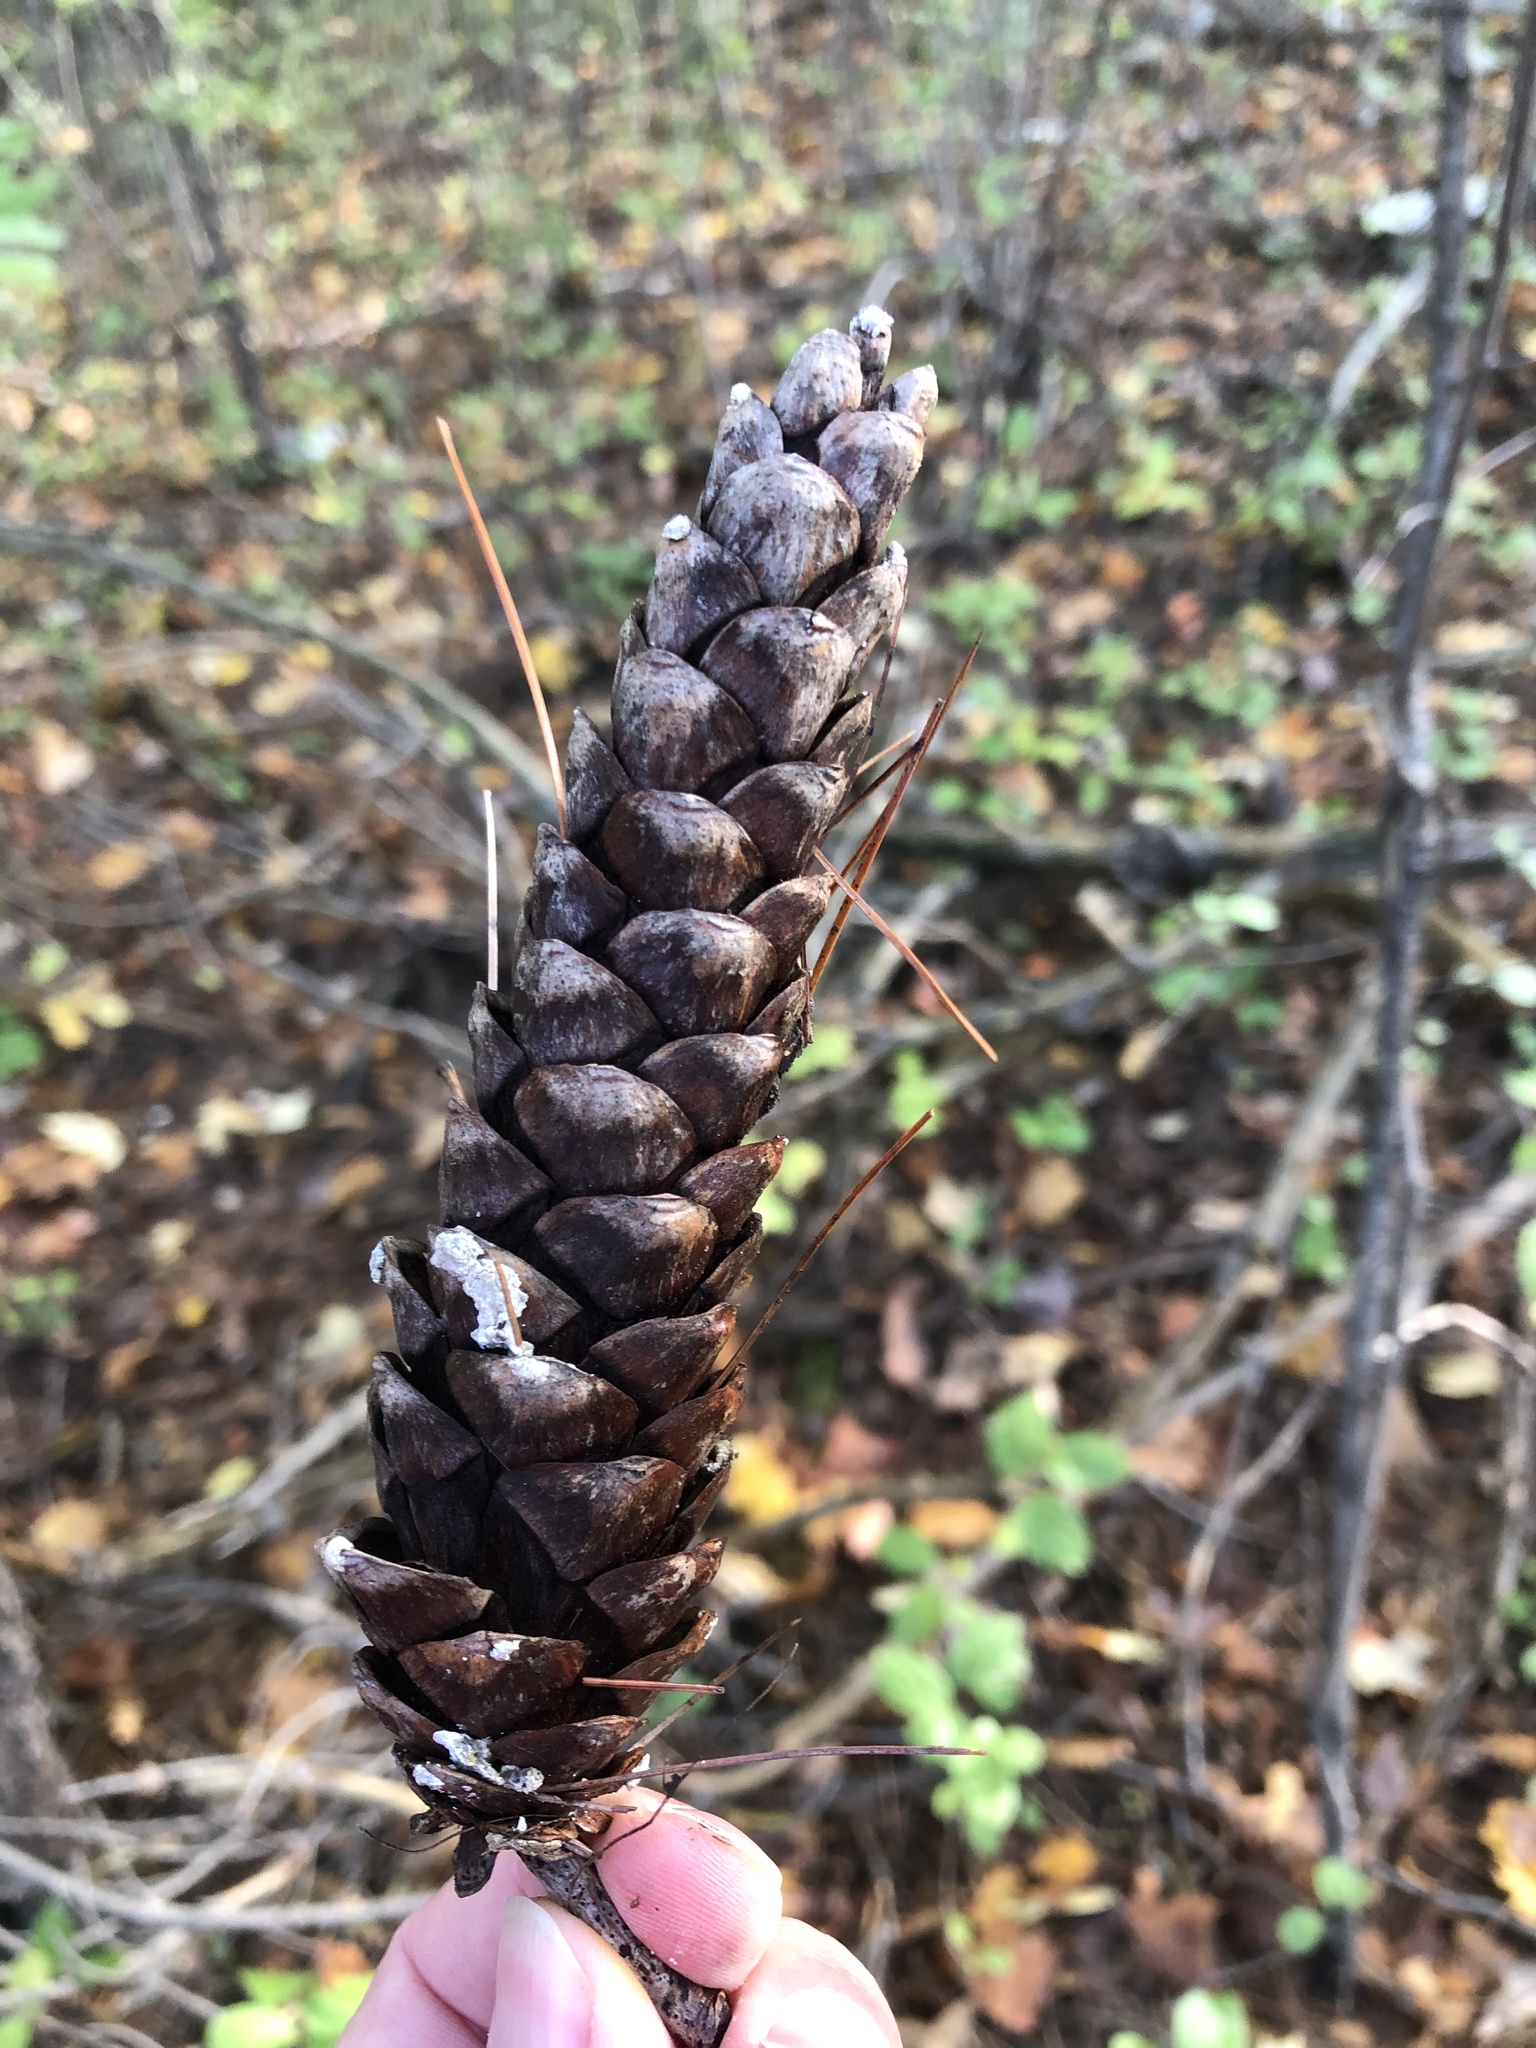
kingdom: Plantae
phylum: Tracheophyta
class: Pinopsida
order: Pinales
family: Pinaceae
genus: Pinus
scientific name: Pinus strobus
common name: Weymouth pine
